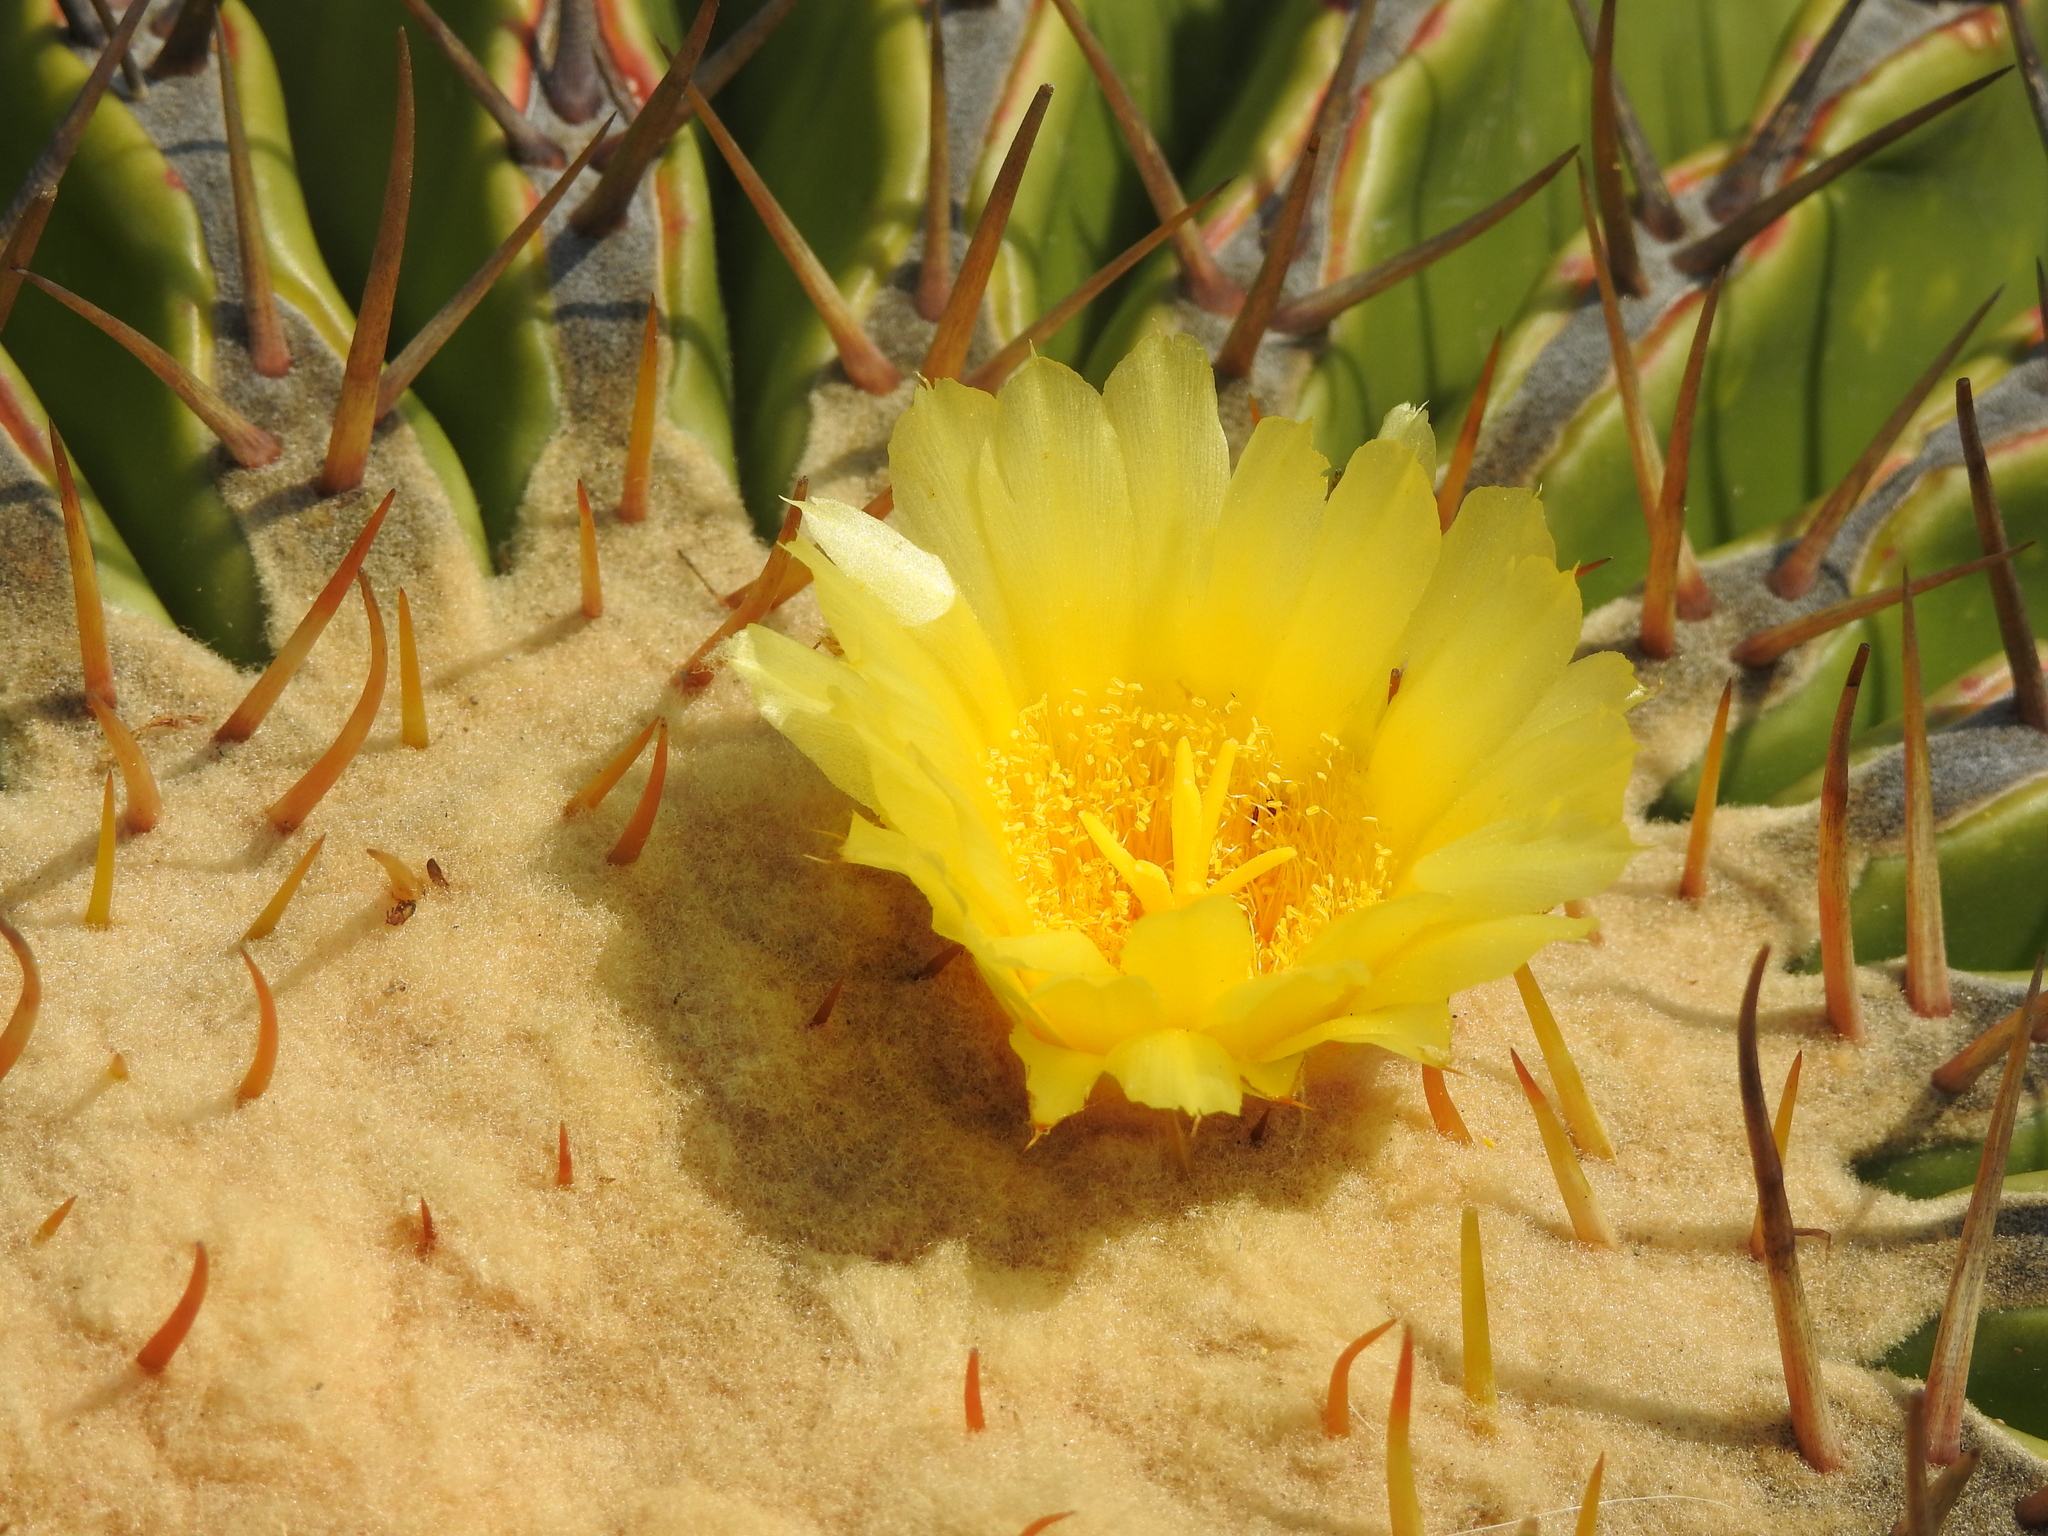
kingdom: Plantae
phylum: Tracheophyta
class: Magnoliopsida
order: Caryophyllales
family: Cactaceae
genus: Echinocactus
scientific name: Echinocactus platyacanthus
